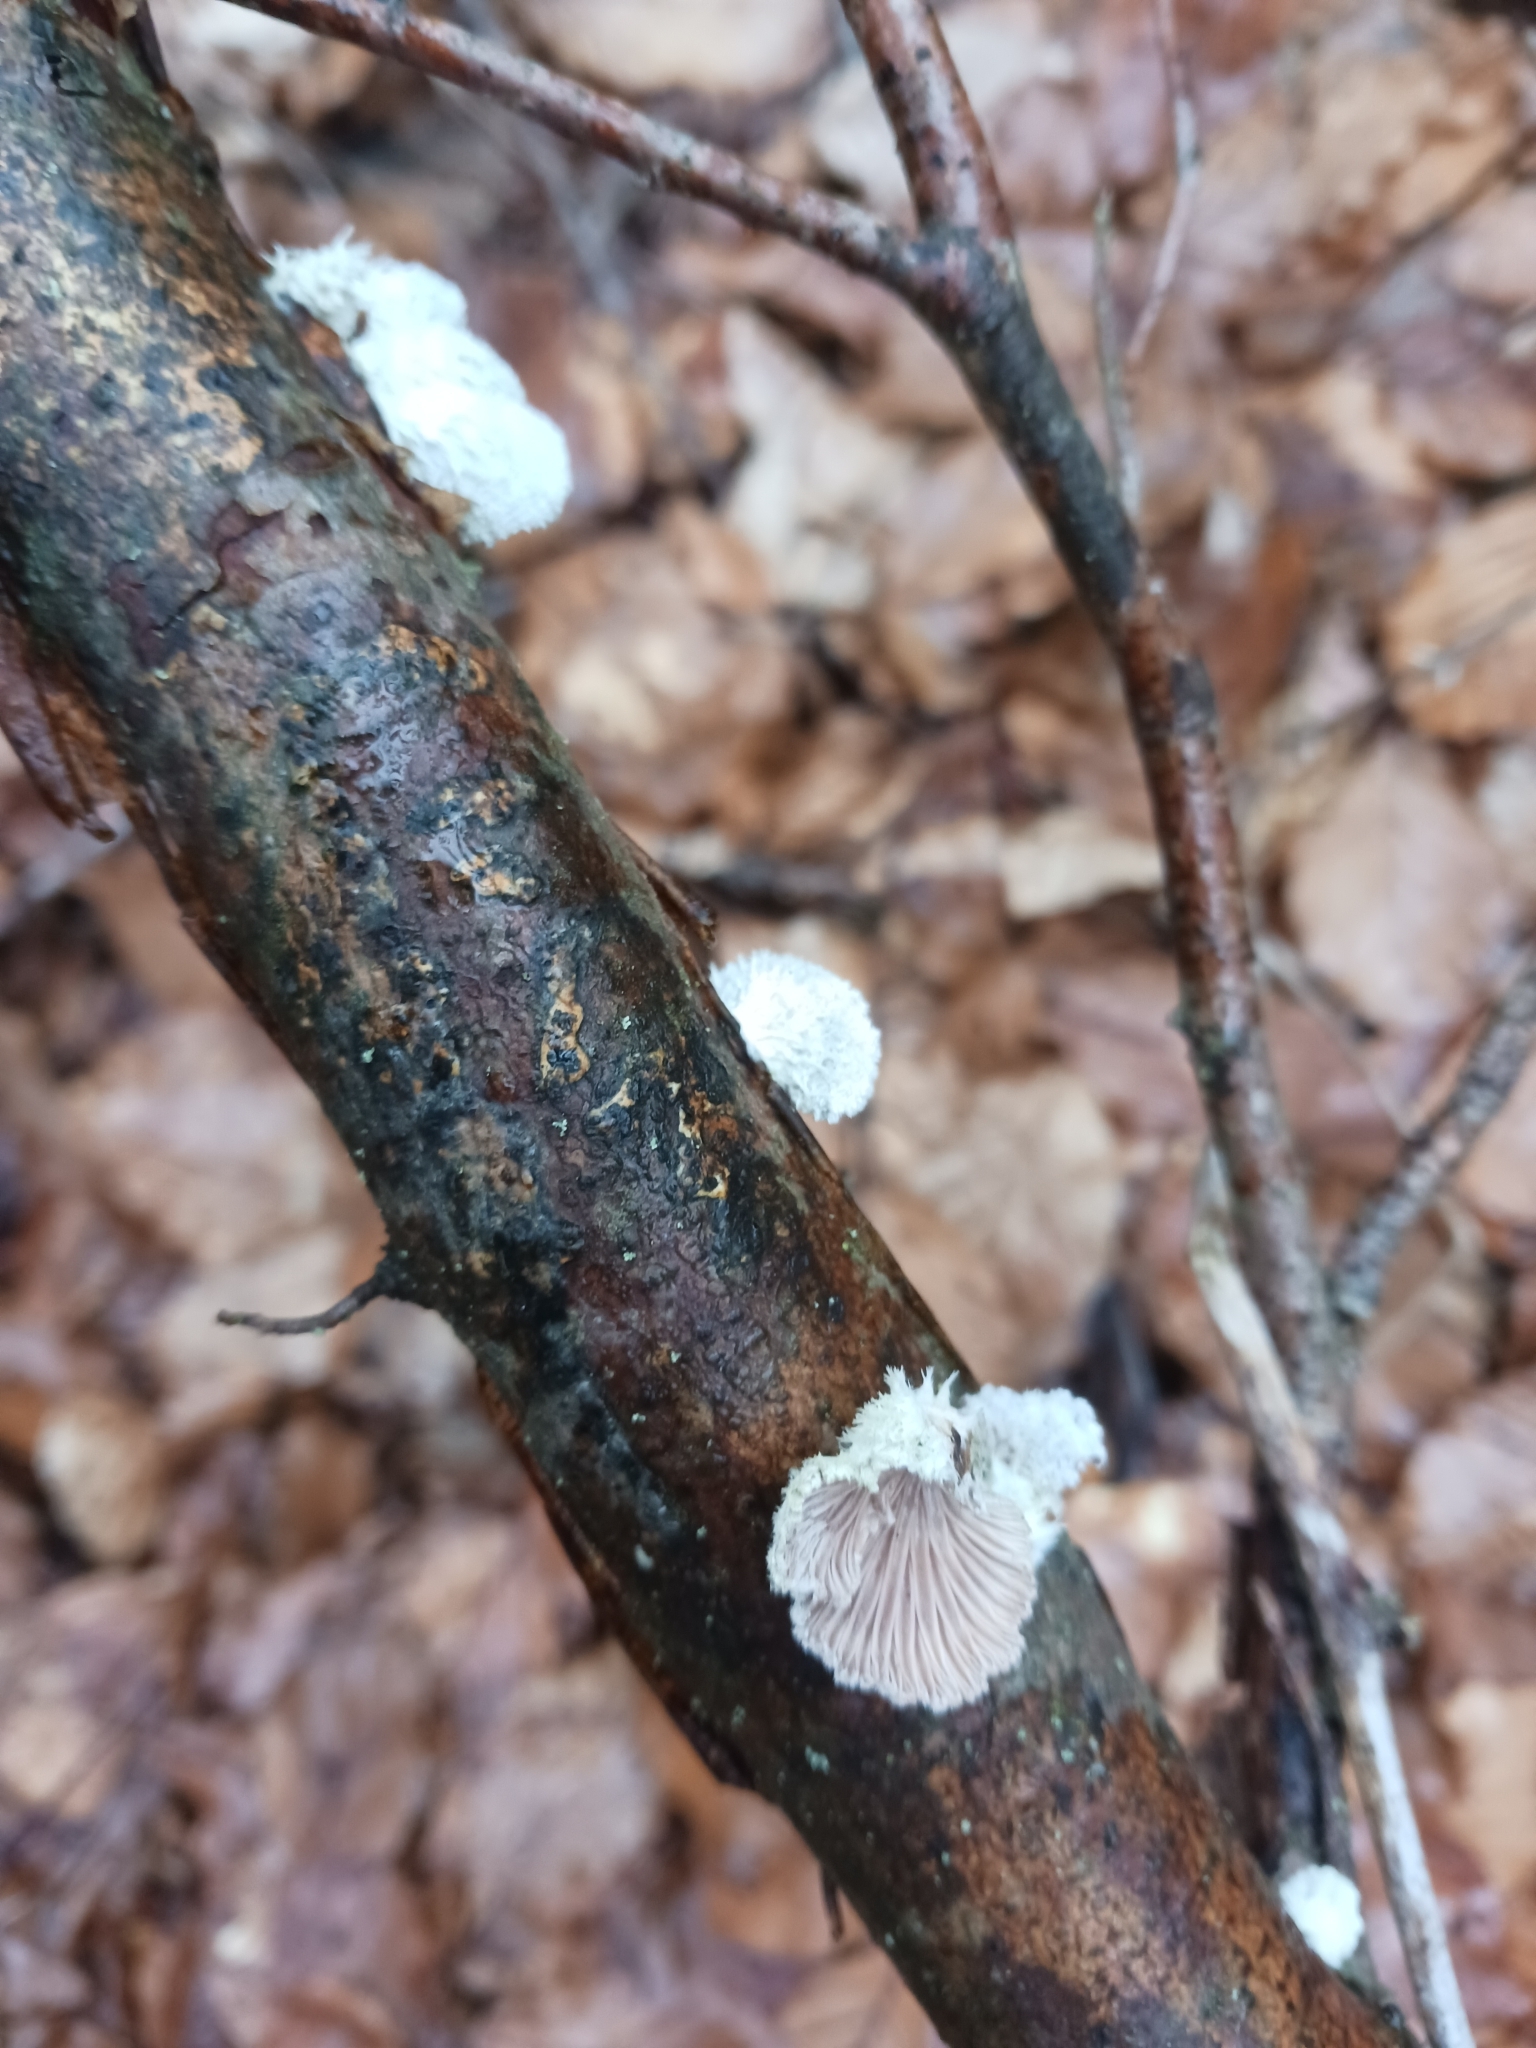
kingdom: Fungi
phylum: Basidiomycota
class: Agaricomycetes
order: Agaricales
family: Schizophyllaceae
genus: Schizophyllum
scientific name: Schizophyllum commune
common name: Common porecrust
